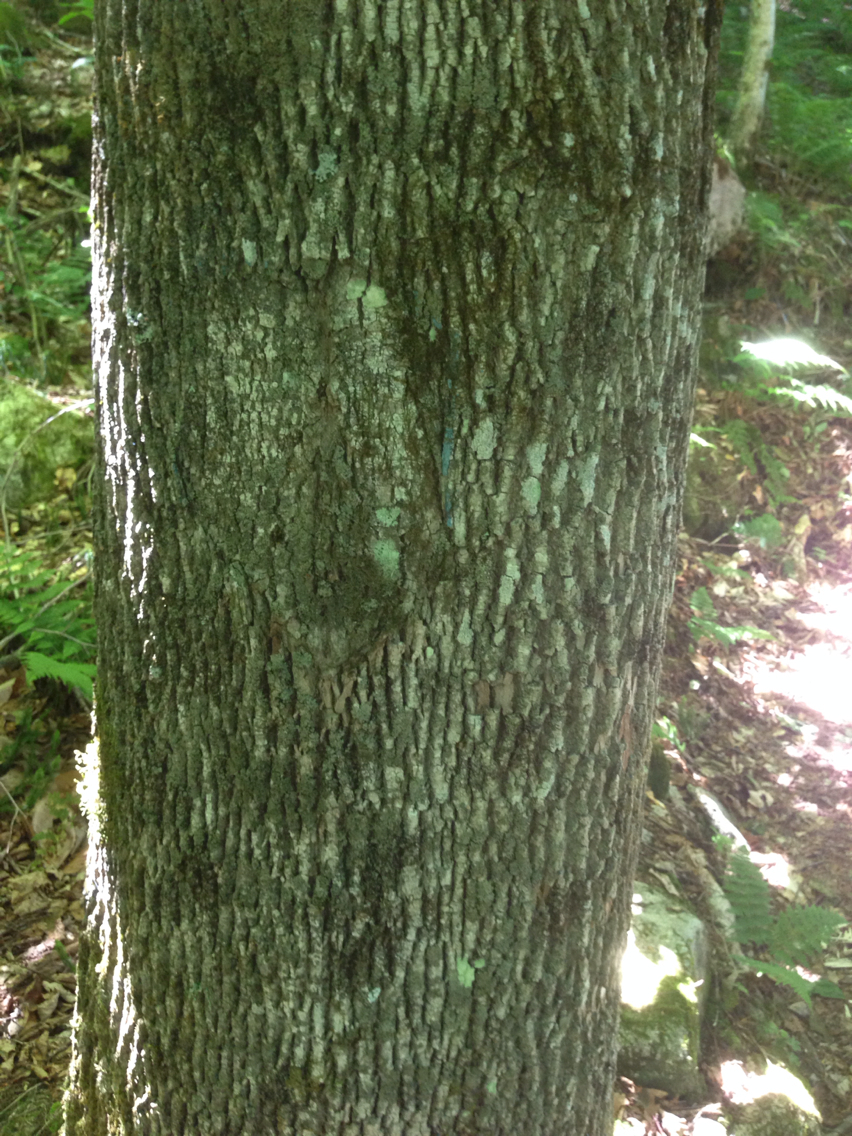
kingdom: Plantae
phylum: Tracheophyta
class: Magnoliopsida
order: Lamiales
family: Oleaceae
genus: Fraxinus
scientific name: Fraxinus americana
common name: White ash
